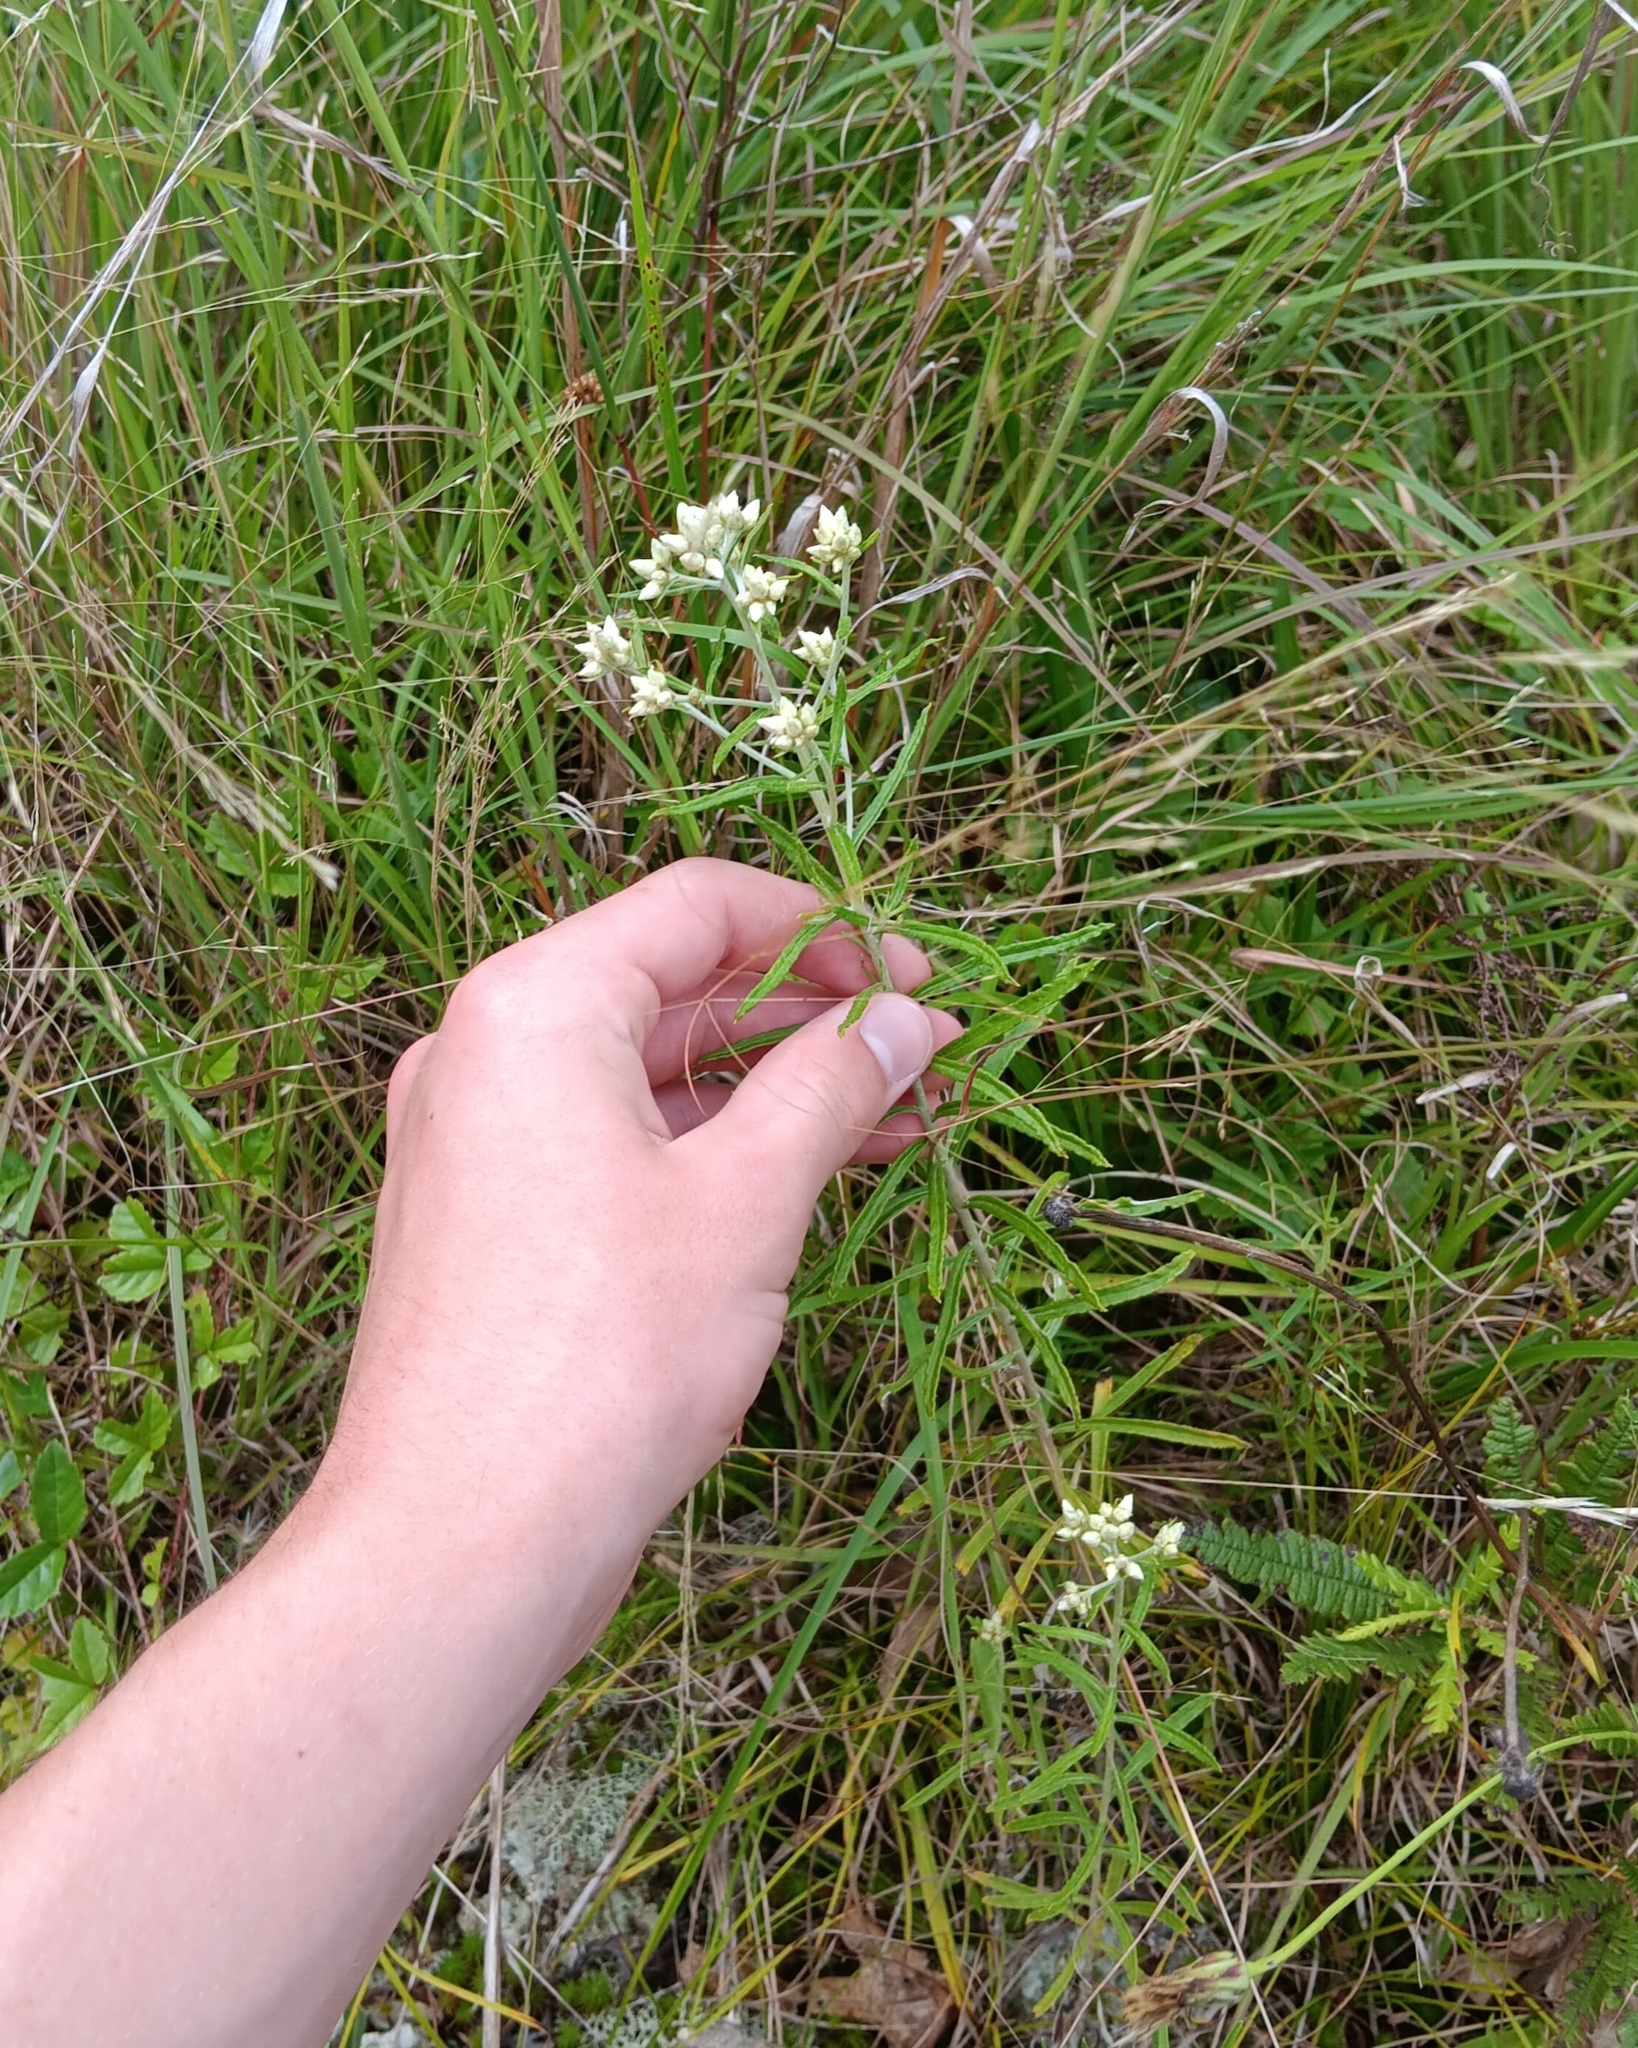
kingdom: Plantae
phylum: Tracheophyta
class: Magnoliopsida
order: Asterales
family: Asteraceae
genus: Pseudognaphalium
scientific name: Pseudognaphalium obtusifolium
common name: Eastern rabbit-tobacco
